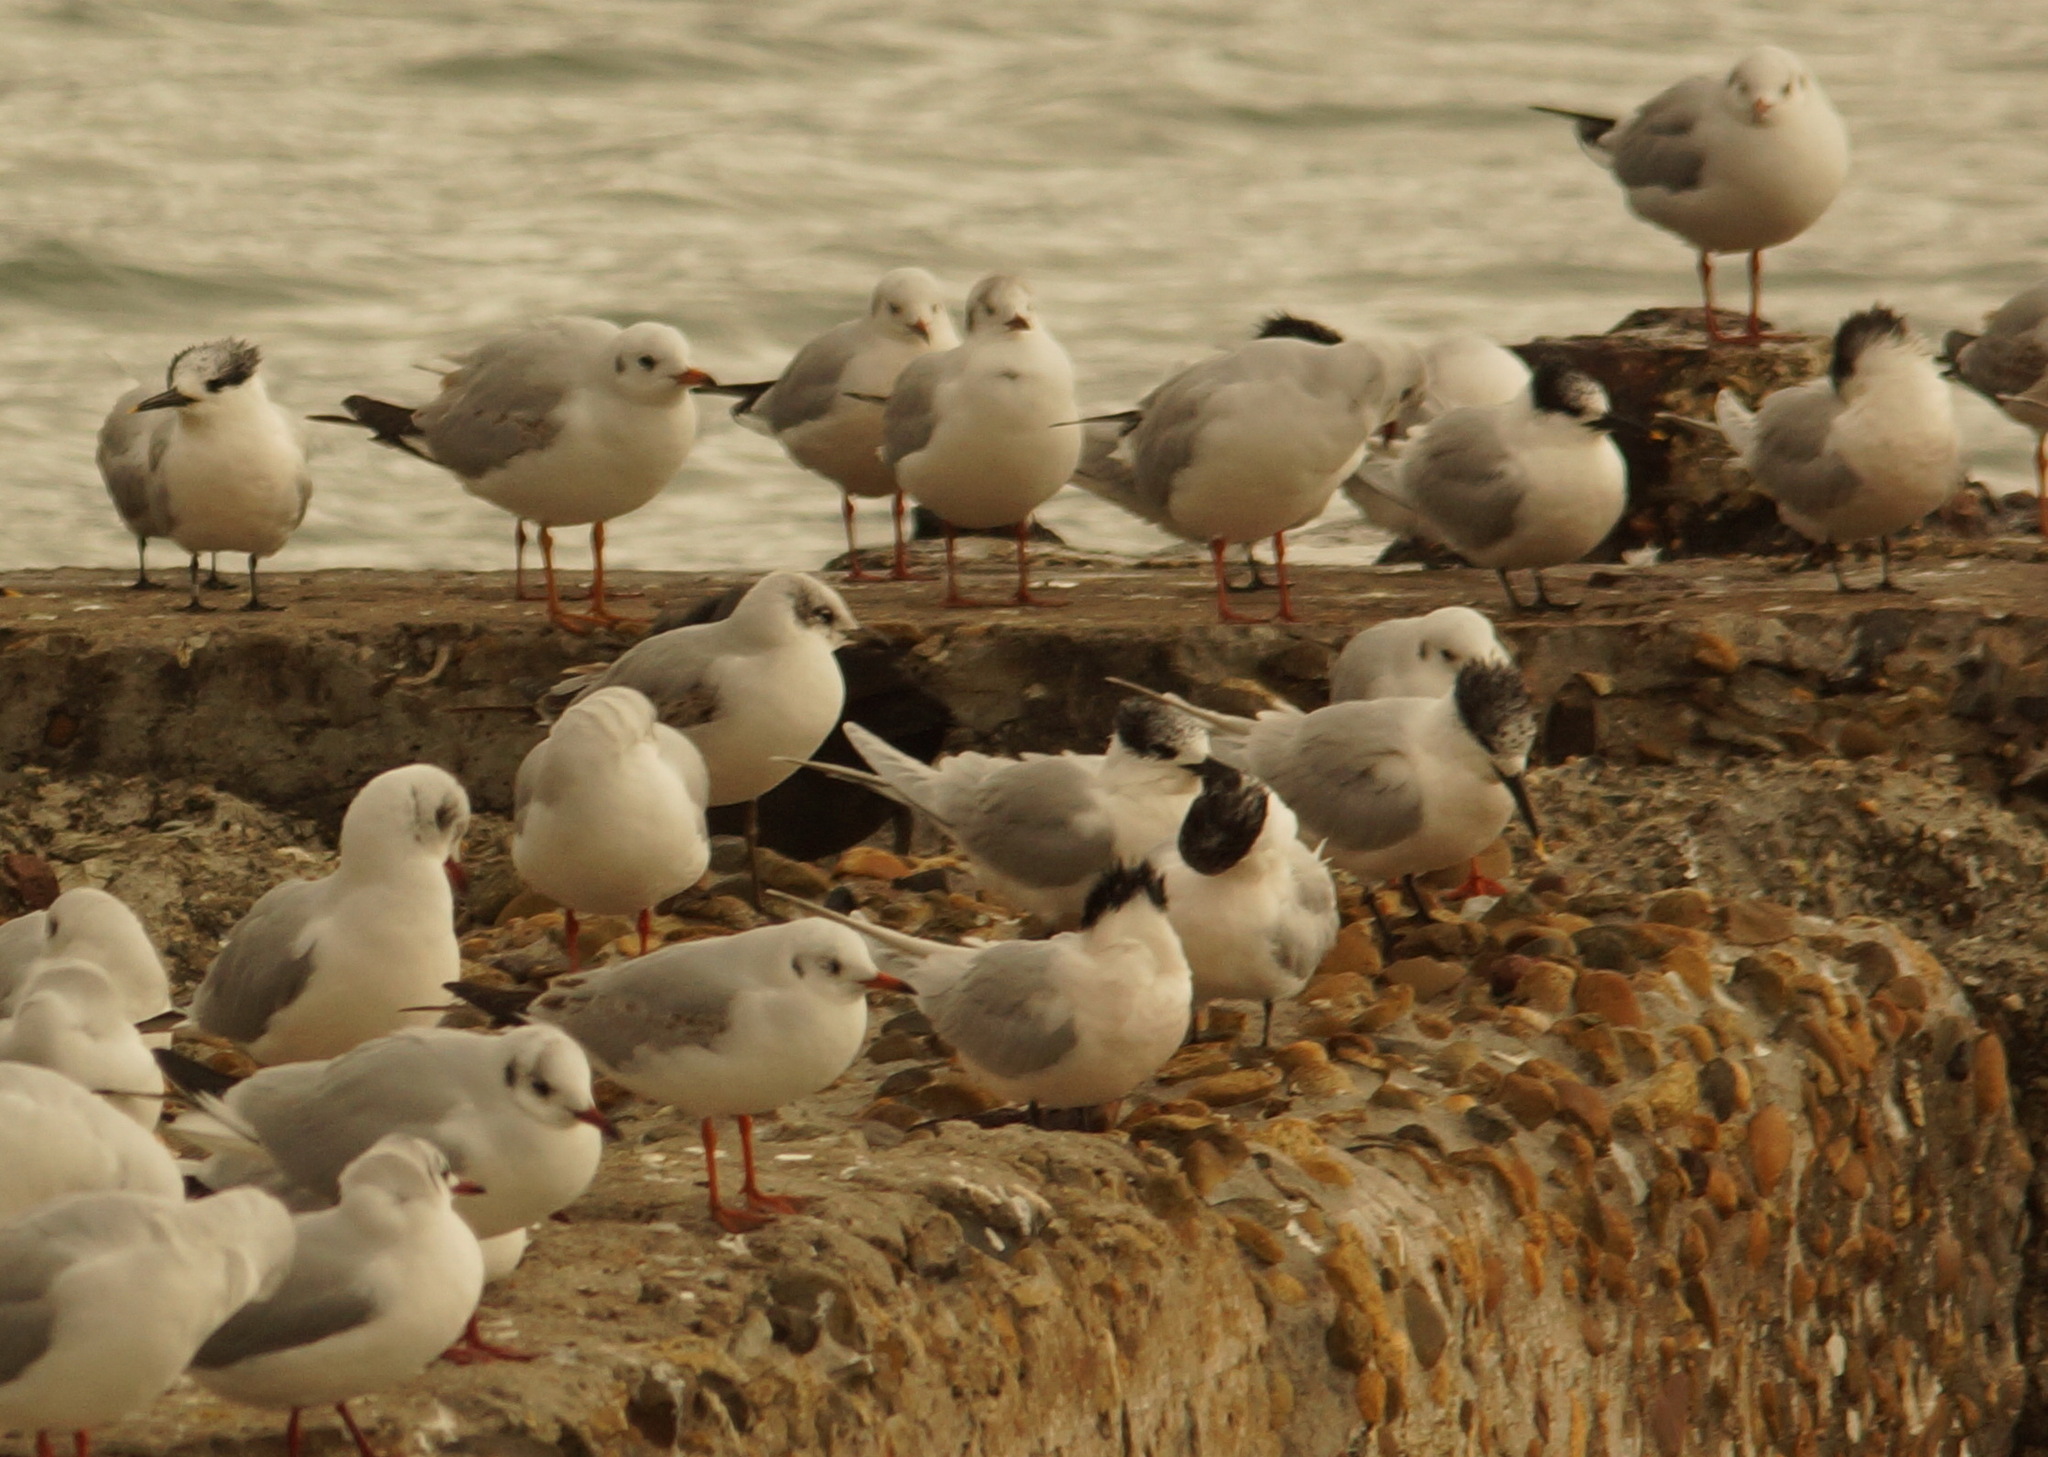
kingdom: Animalia
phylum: Chordata
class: Aves
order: Charadriiformes
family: Laridae
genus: Ichthyaetus
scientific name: Ichthyaetus melanocephalus
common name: Mediterranean gull
